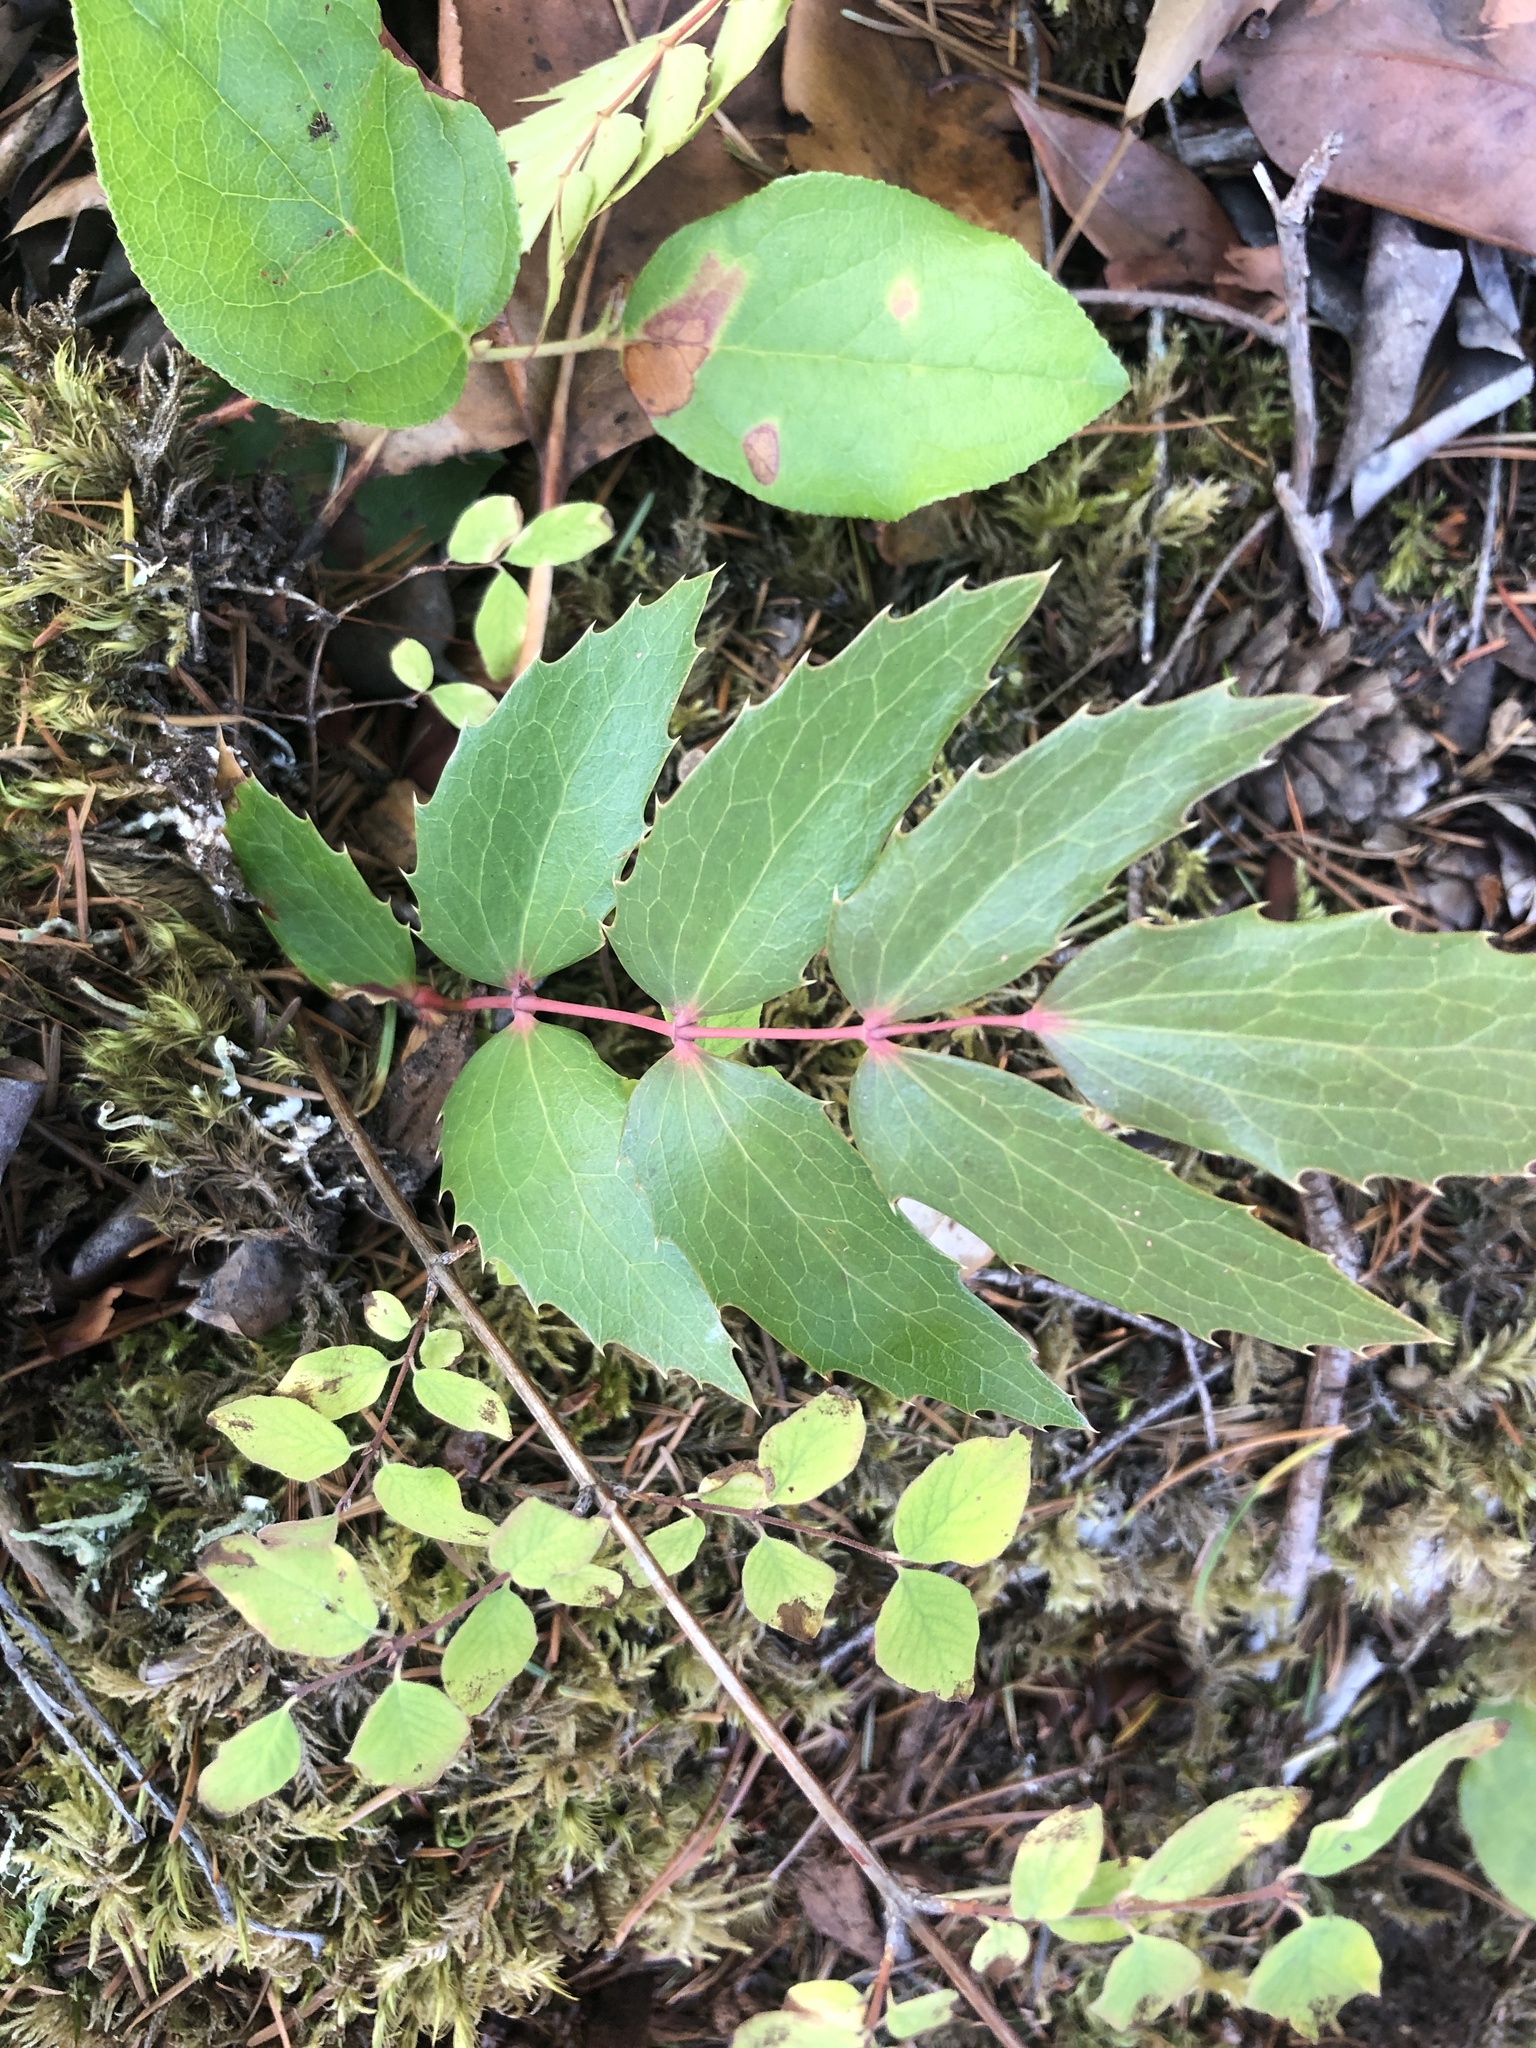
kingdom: Plantae
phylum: Tracheophyta
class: Magnoliopsida
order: Ranunculales
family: Berberidaceae
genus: Mahonia
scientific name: Mahonia nervosa
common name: Cascade oregon-grape
